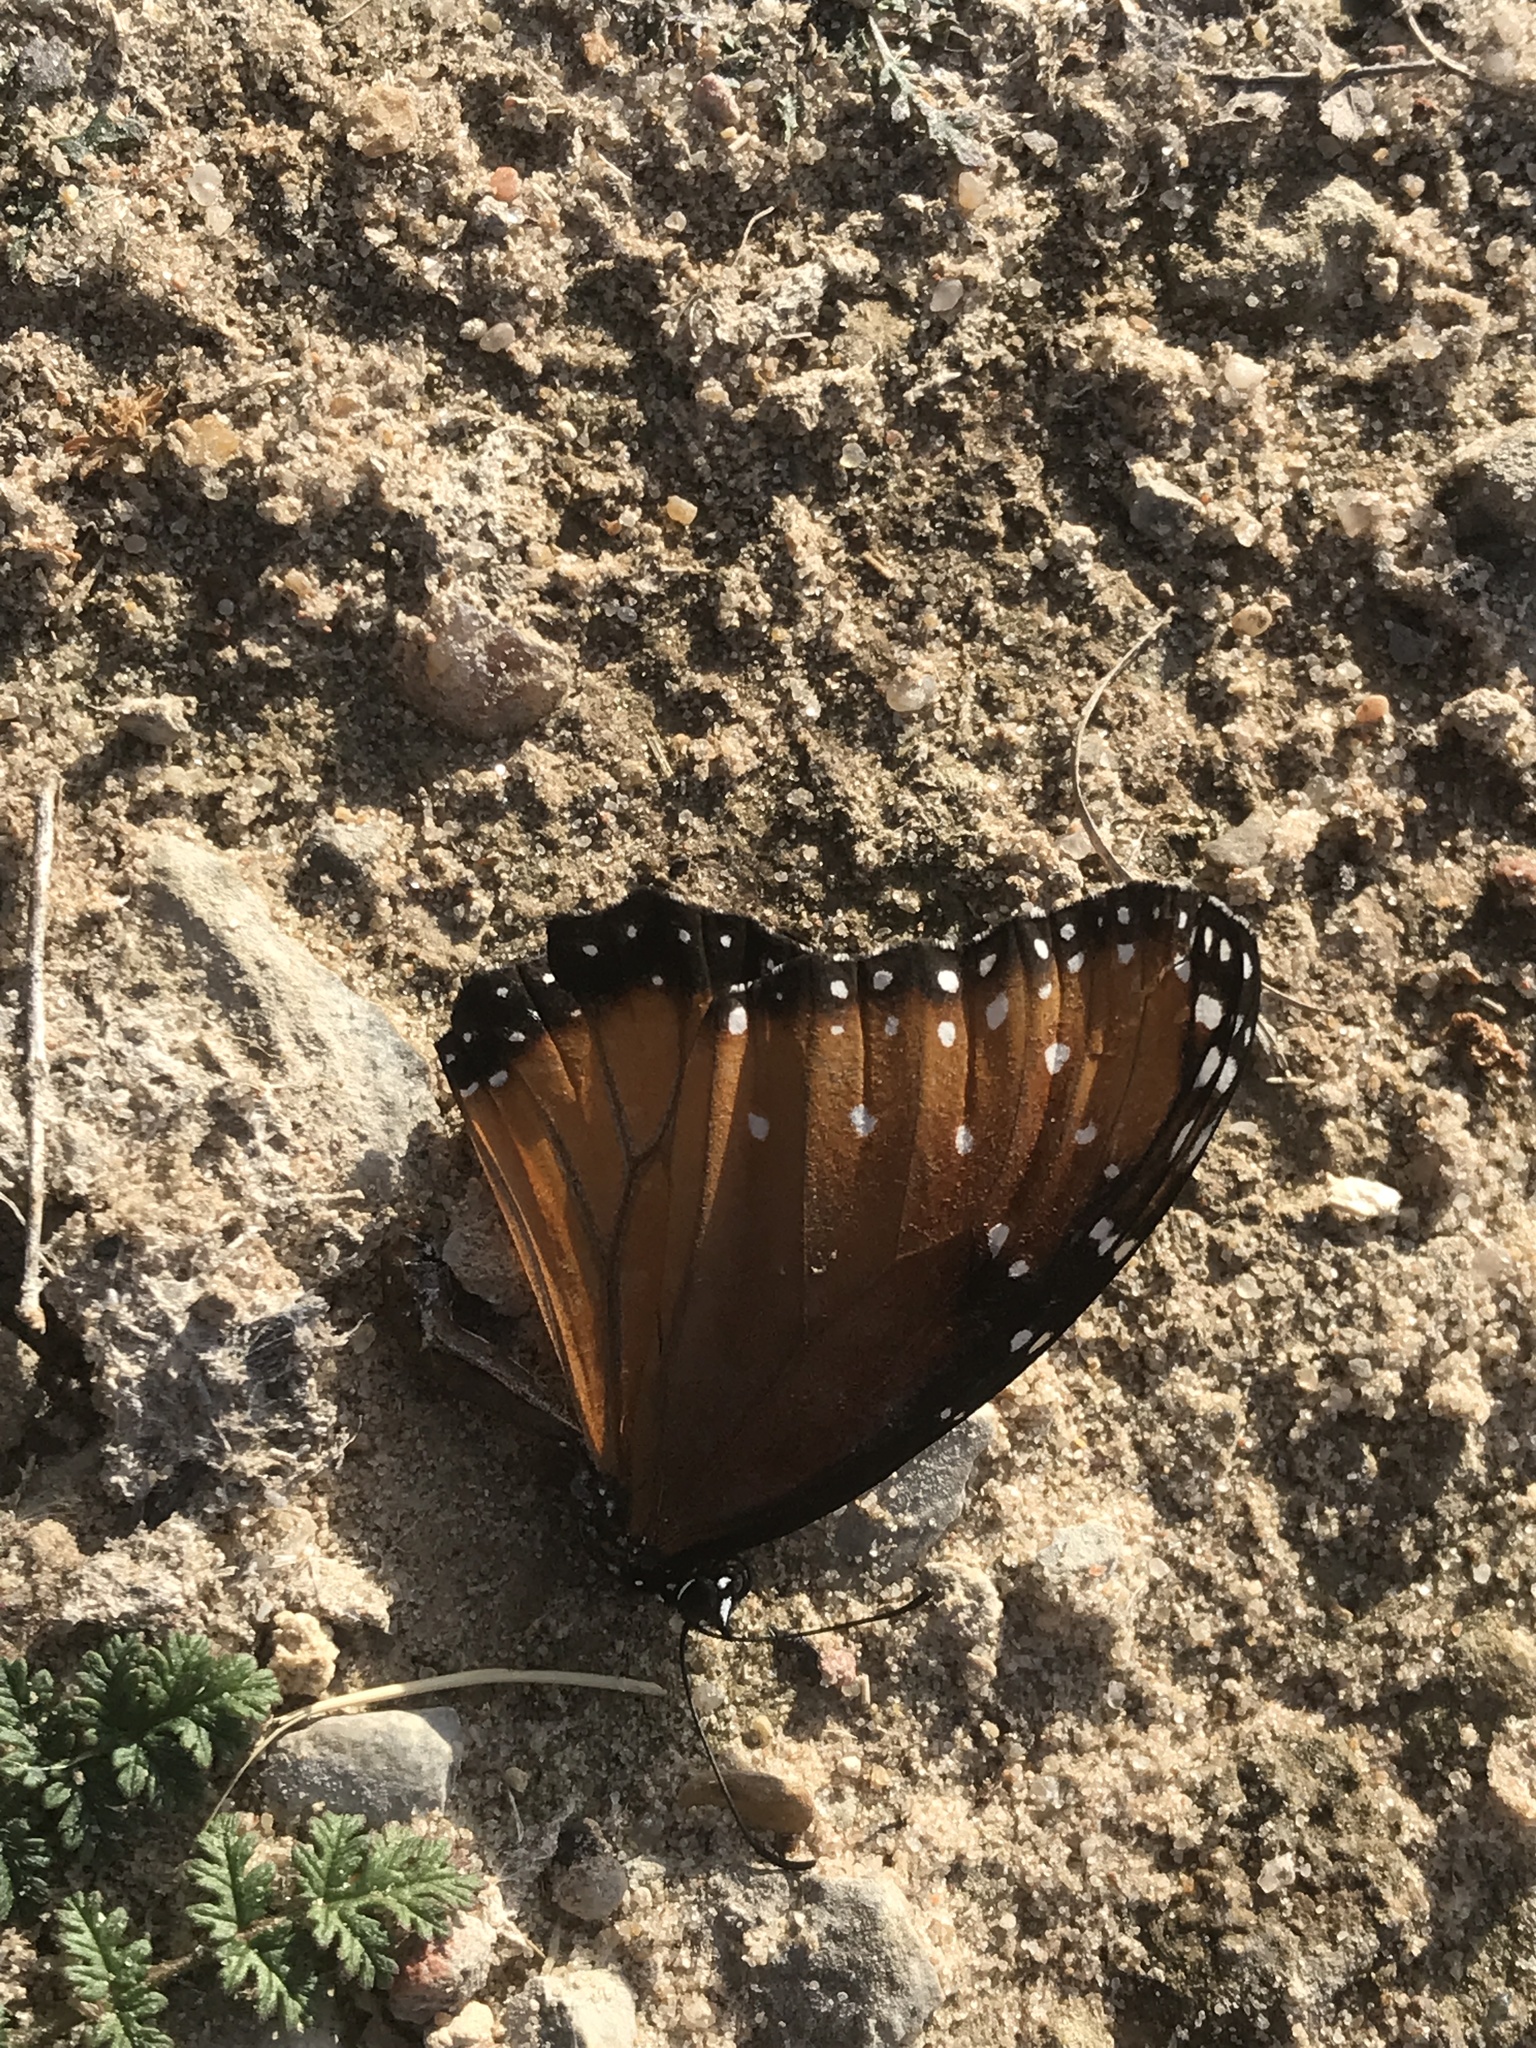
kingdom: Animalia
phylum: Arthropoda
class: Insecta
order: Lepidoptera
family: Nymphalidae
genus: Danaus
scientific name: Danaus gilippus
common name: Queen
